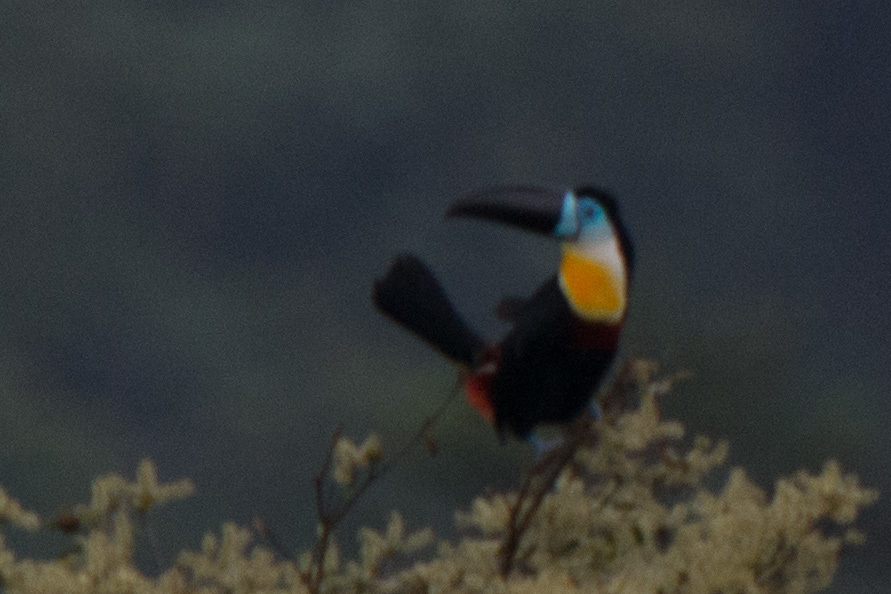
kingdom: Animalia
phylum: Chordata
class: Aves
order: Piciformes
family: Ramphastidae
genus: Ramphastos
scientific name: Ramphastos vitellinus
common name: Channel-billed toucan
